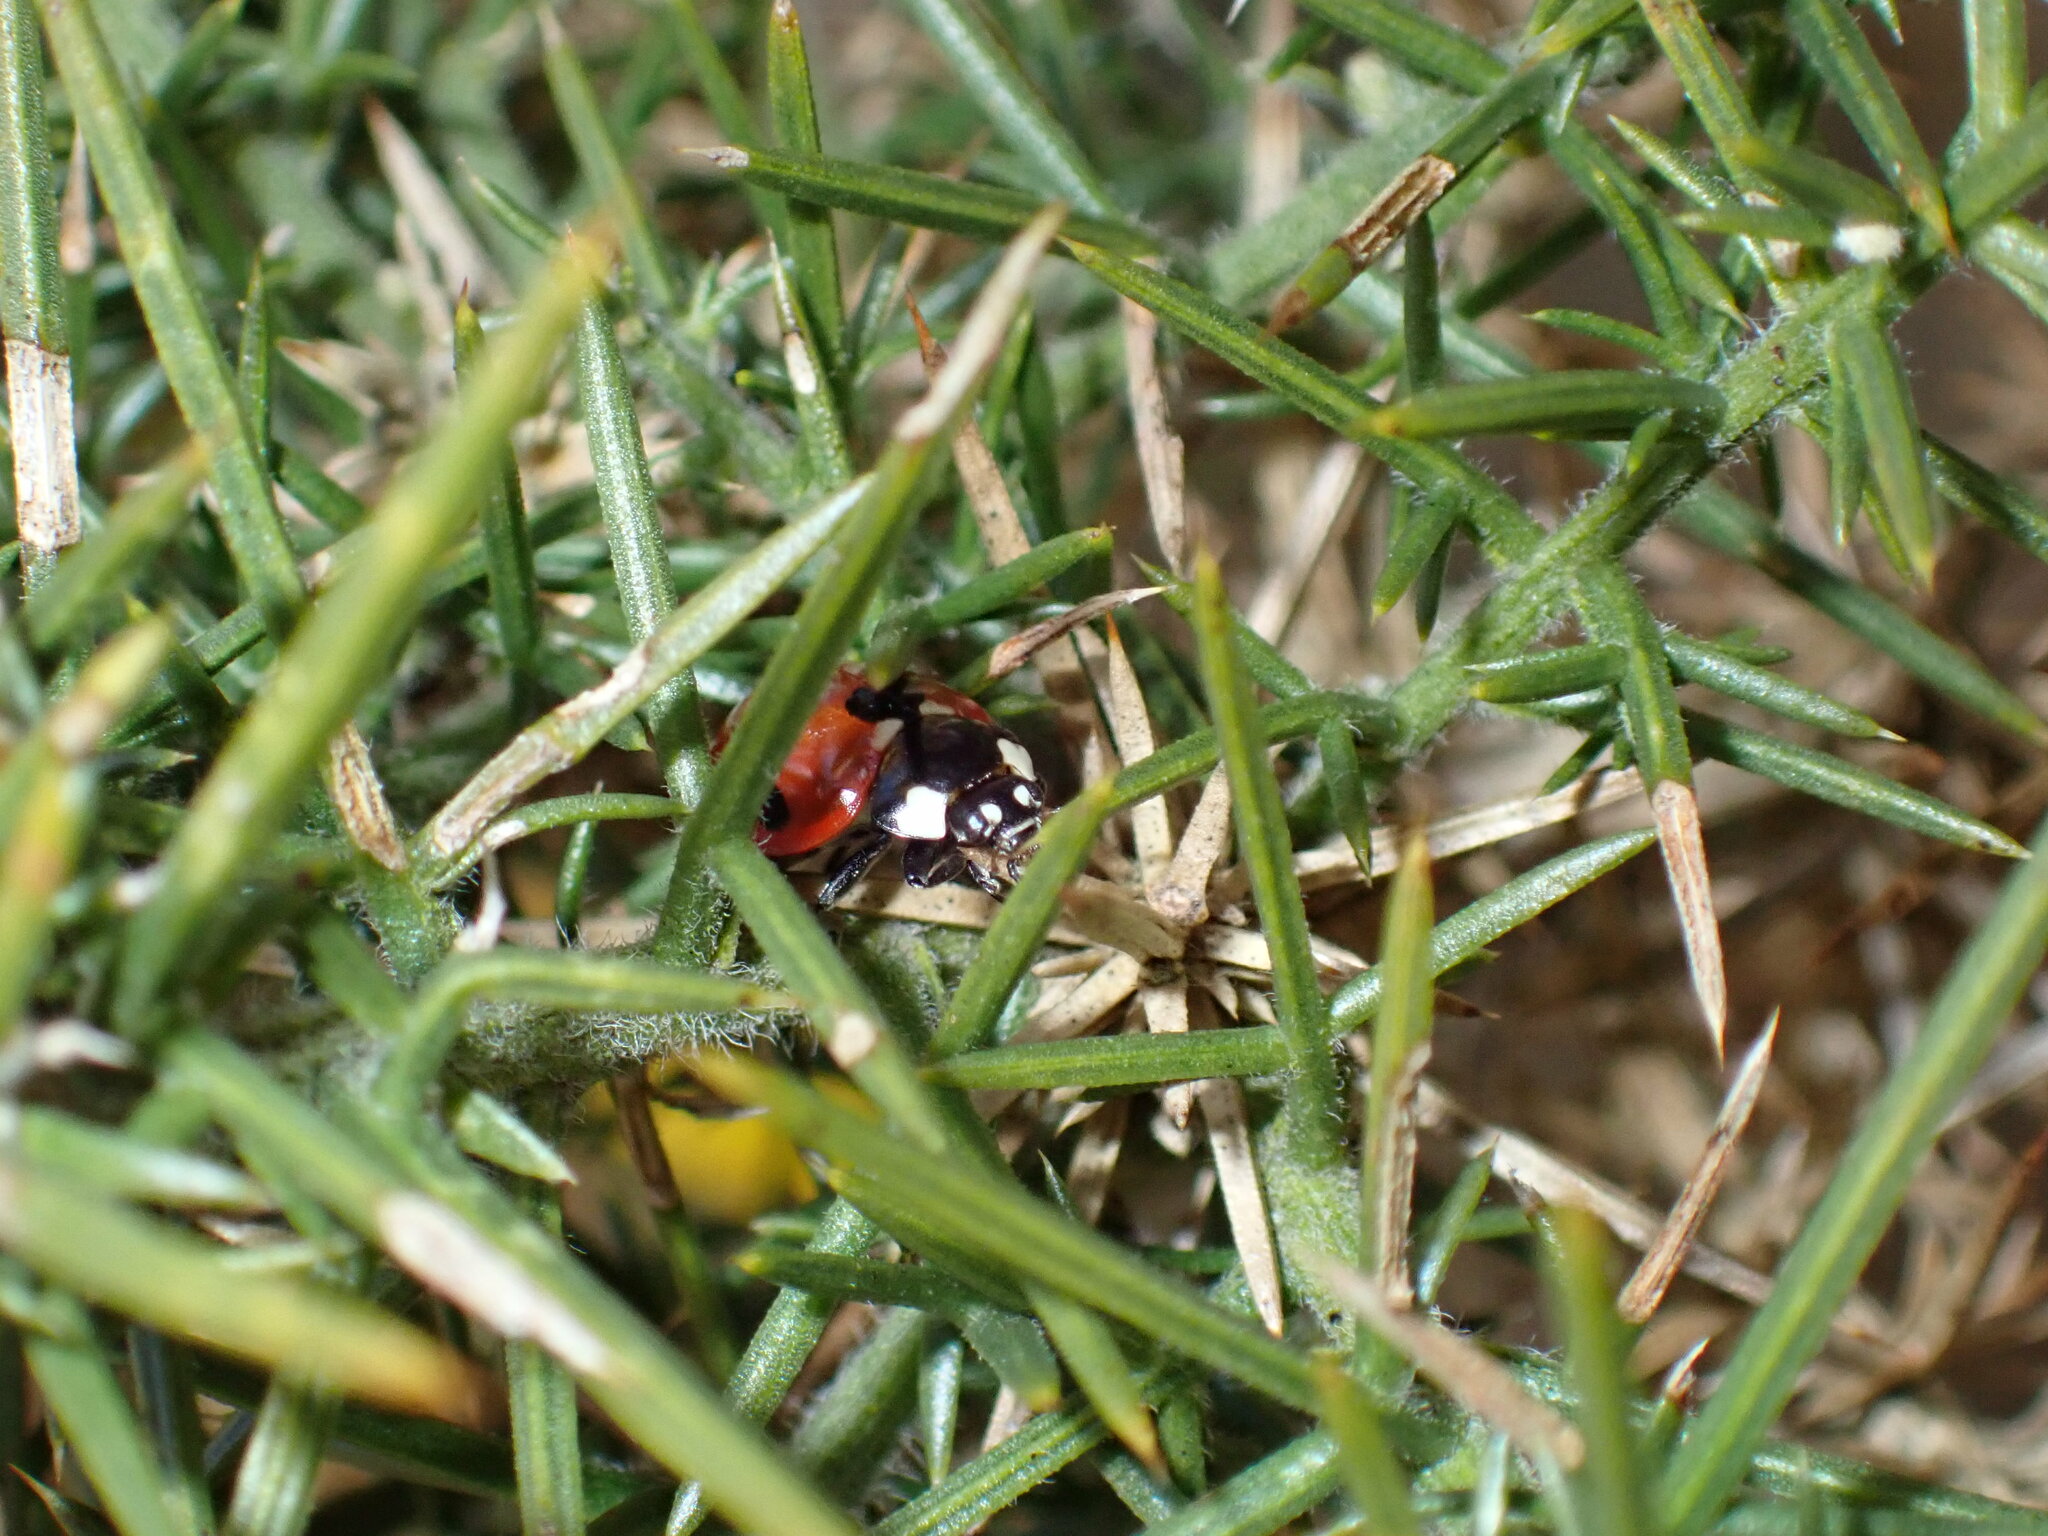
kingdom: Animalia
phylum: Arthropoda
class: Insecta
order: Coleoptera
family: Coccinellidae
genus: Coccinella
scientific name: Coccinella septempunctata
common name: Sevenspotted lady beetle
